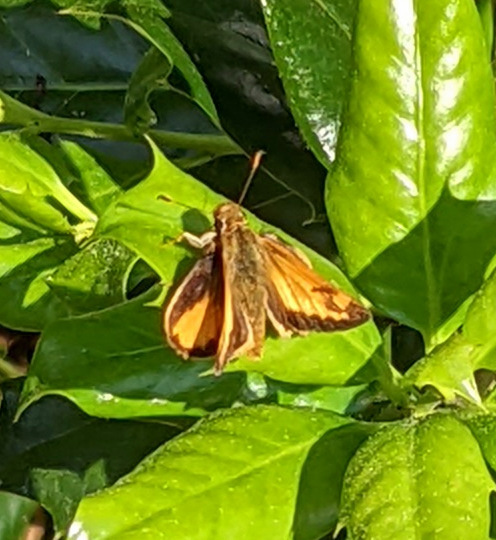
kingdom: Animalia
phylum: Arthropoda
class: Insecta
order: Lepidoptera
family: Hesperiidae
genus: Lon
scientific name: Lon zabulon
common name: Zabulon skipper
